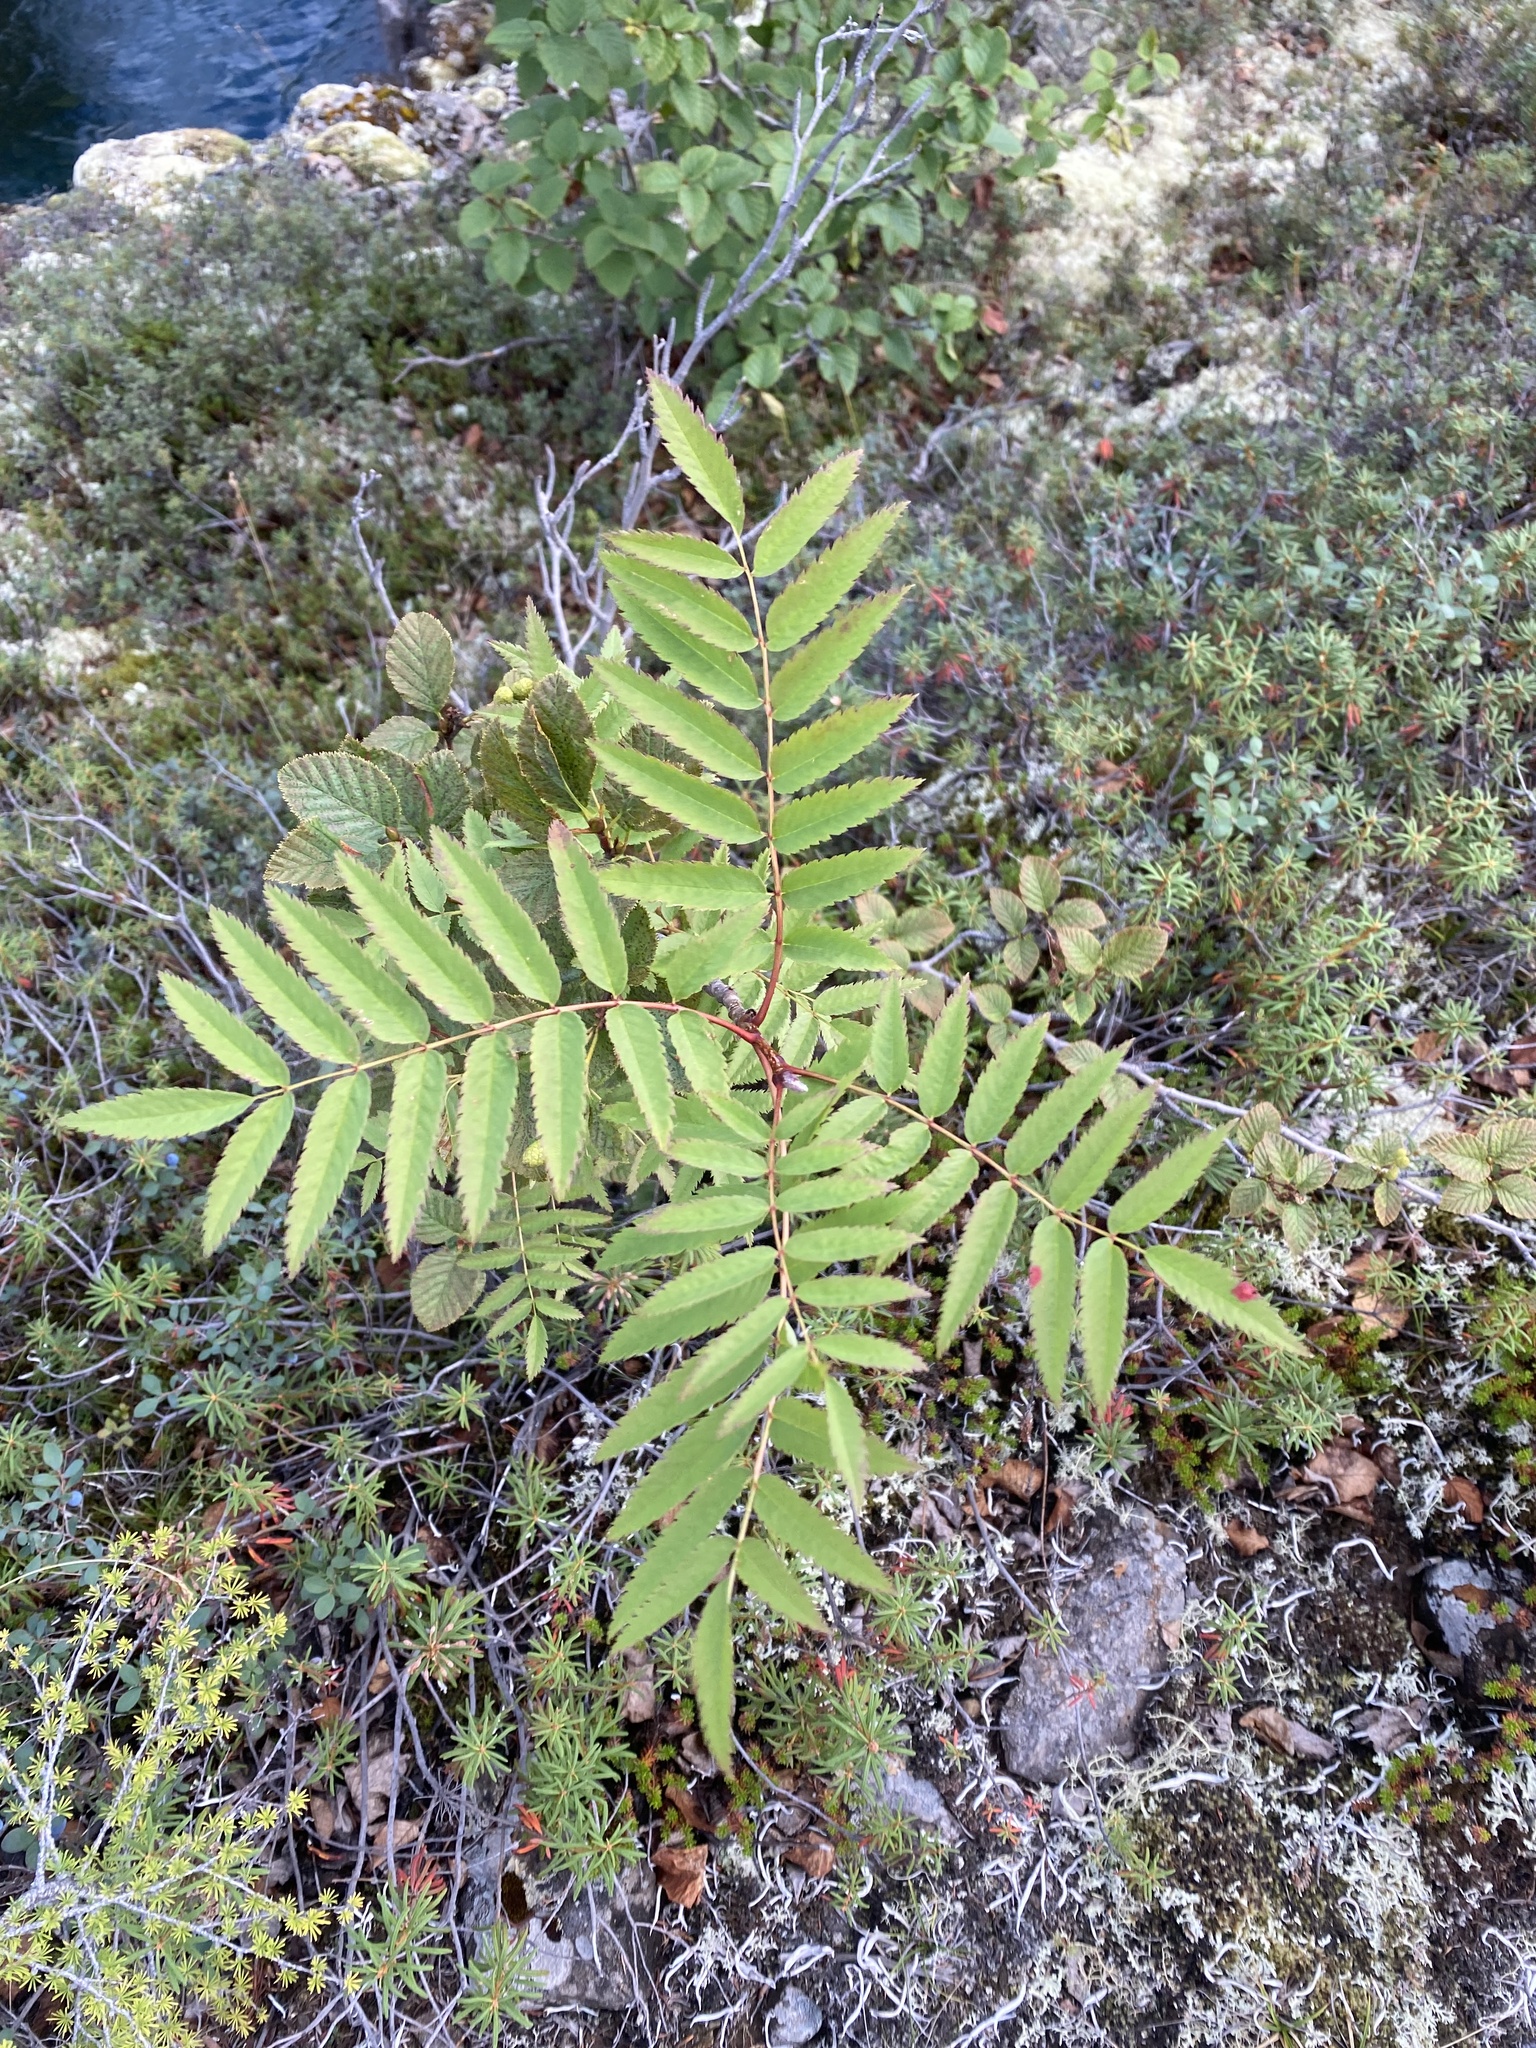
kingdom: Plantae
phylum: Tracheophyta
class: Magnoliopsida
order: Rosales
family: Rosaceae
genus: Sorbus
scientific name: Sorbus aucuparia
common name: Rowan
